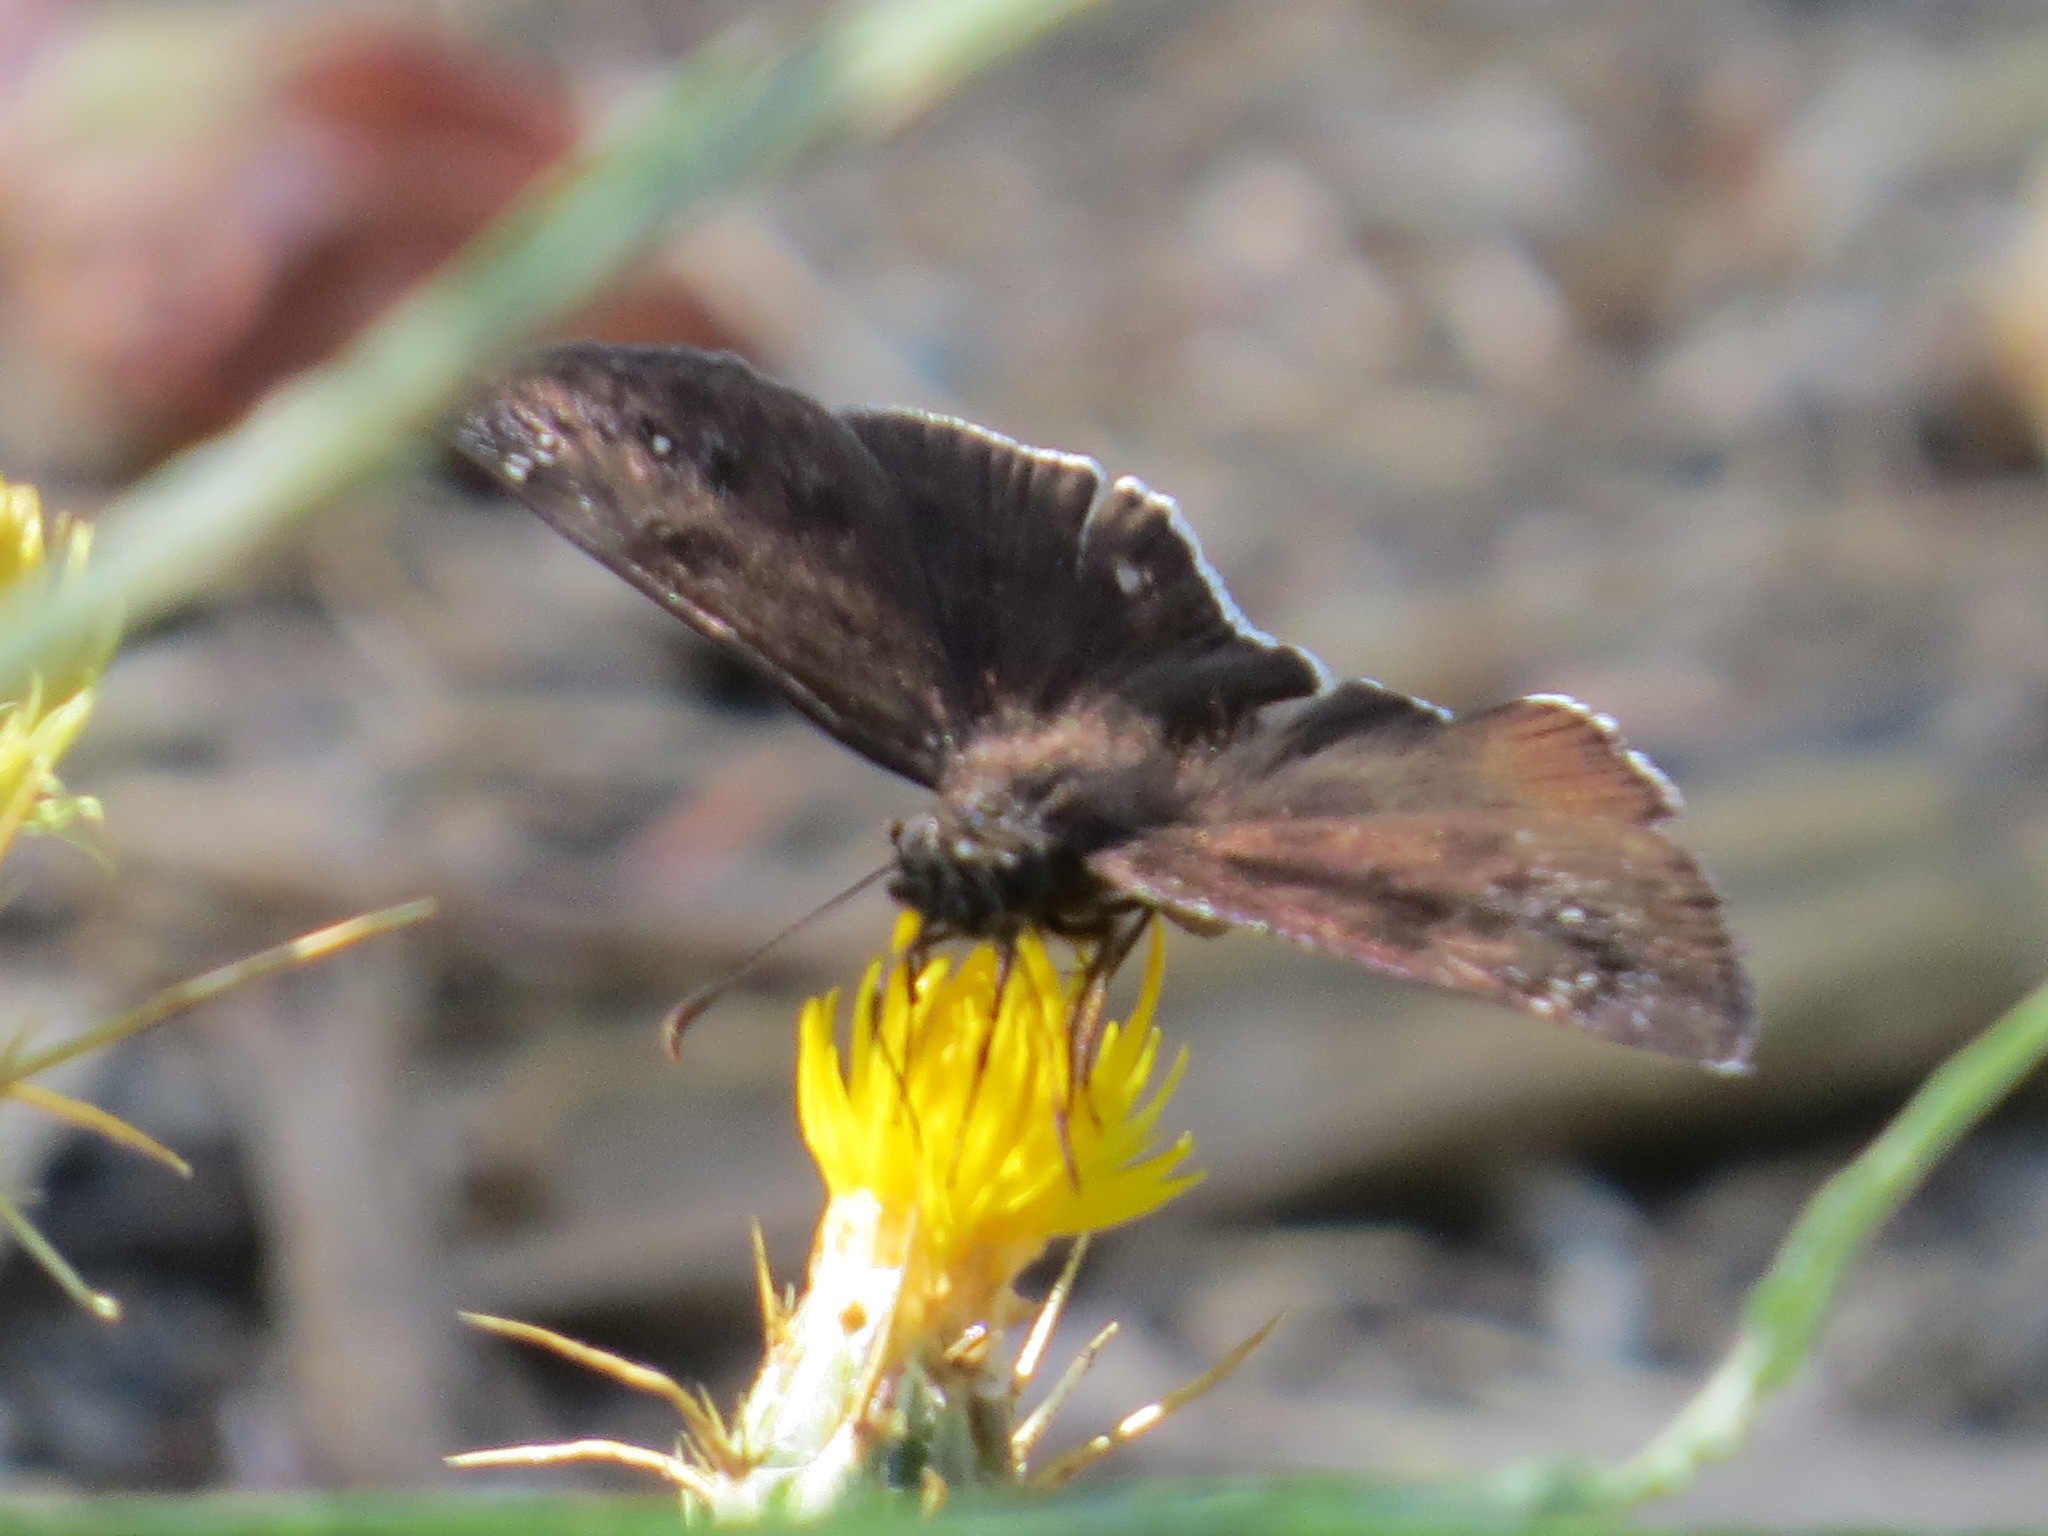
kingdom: Animalia
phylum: Arthropoda
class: Insecta
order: Lepidoptera
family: Hesperiidae
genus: Erynnis
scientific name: Erynnis tristis
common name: Mournful duskywing
